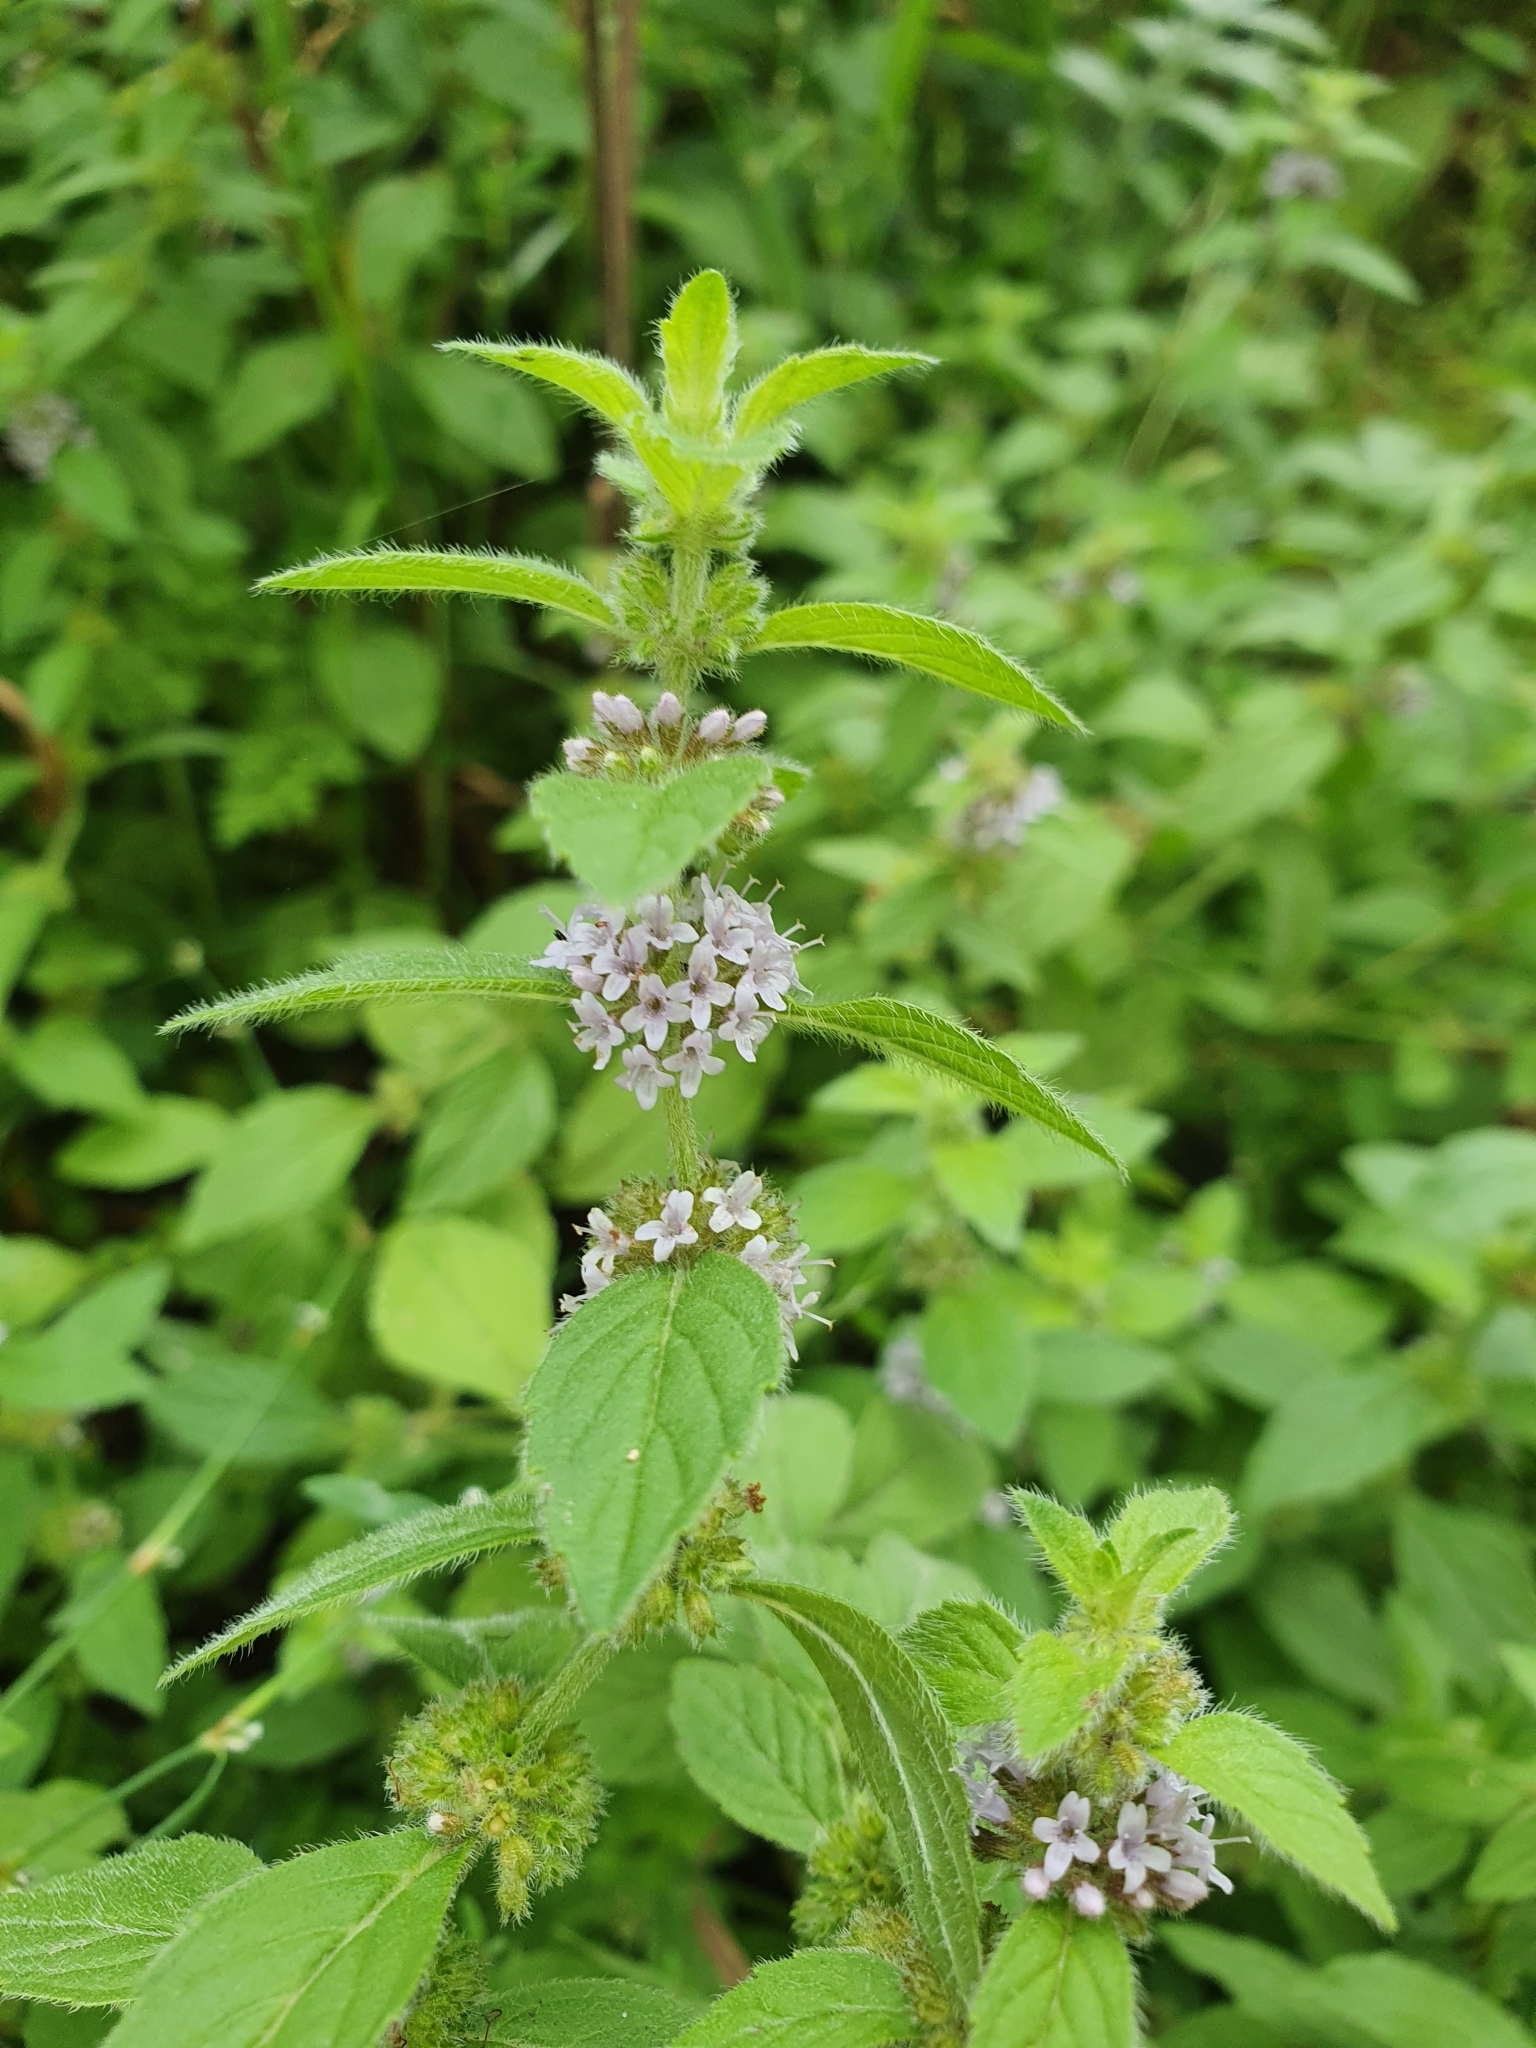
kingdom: Plantae
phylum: Tracheophyta
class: Magnoliopsida
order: Lamiales
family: Lamiaceae
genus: Mentha
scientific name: Mentha arvensis
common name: Corn mint
